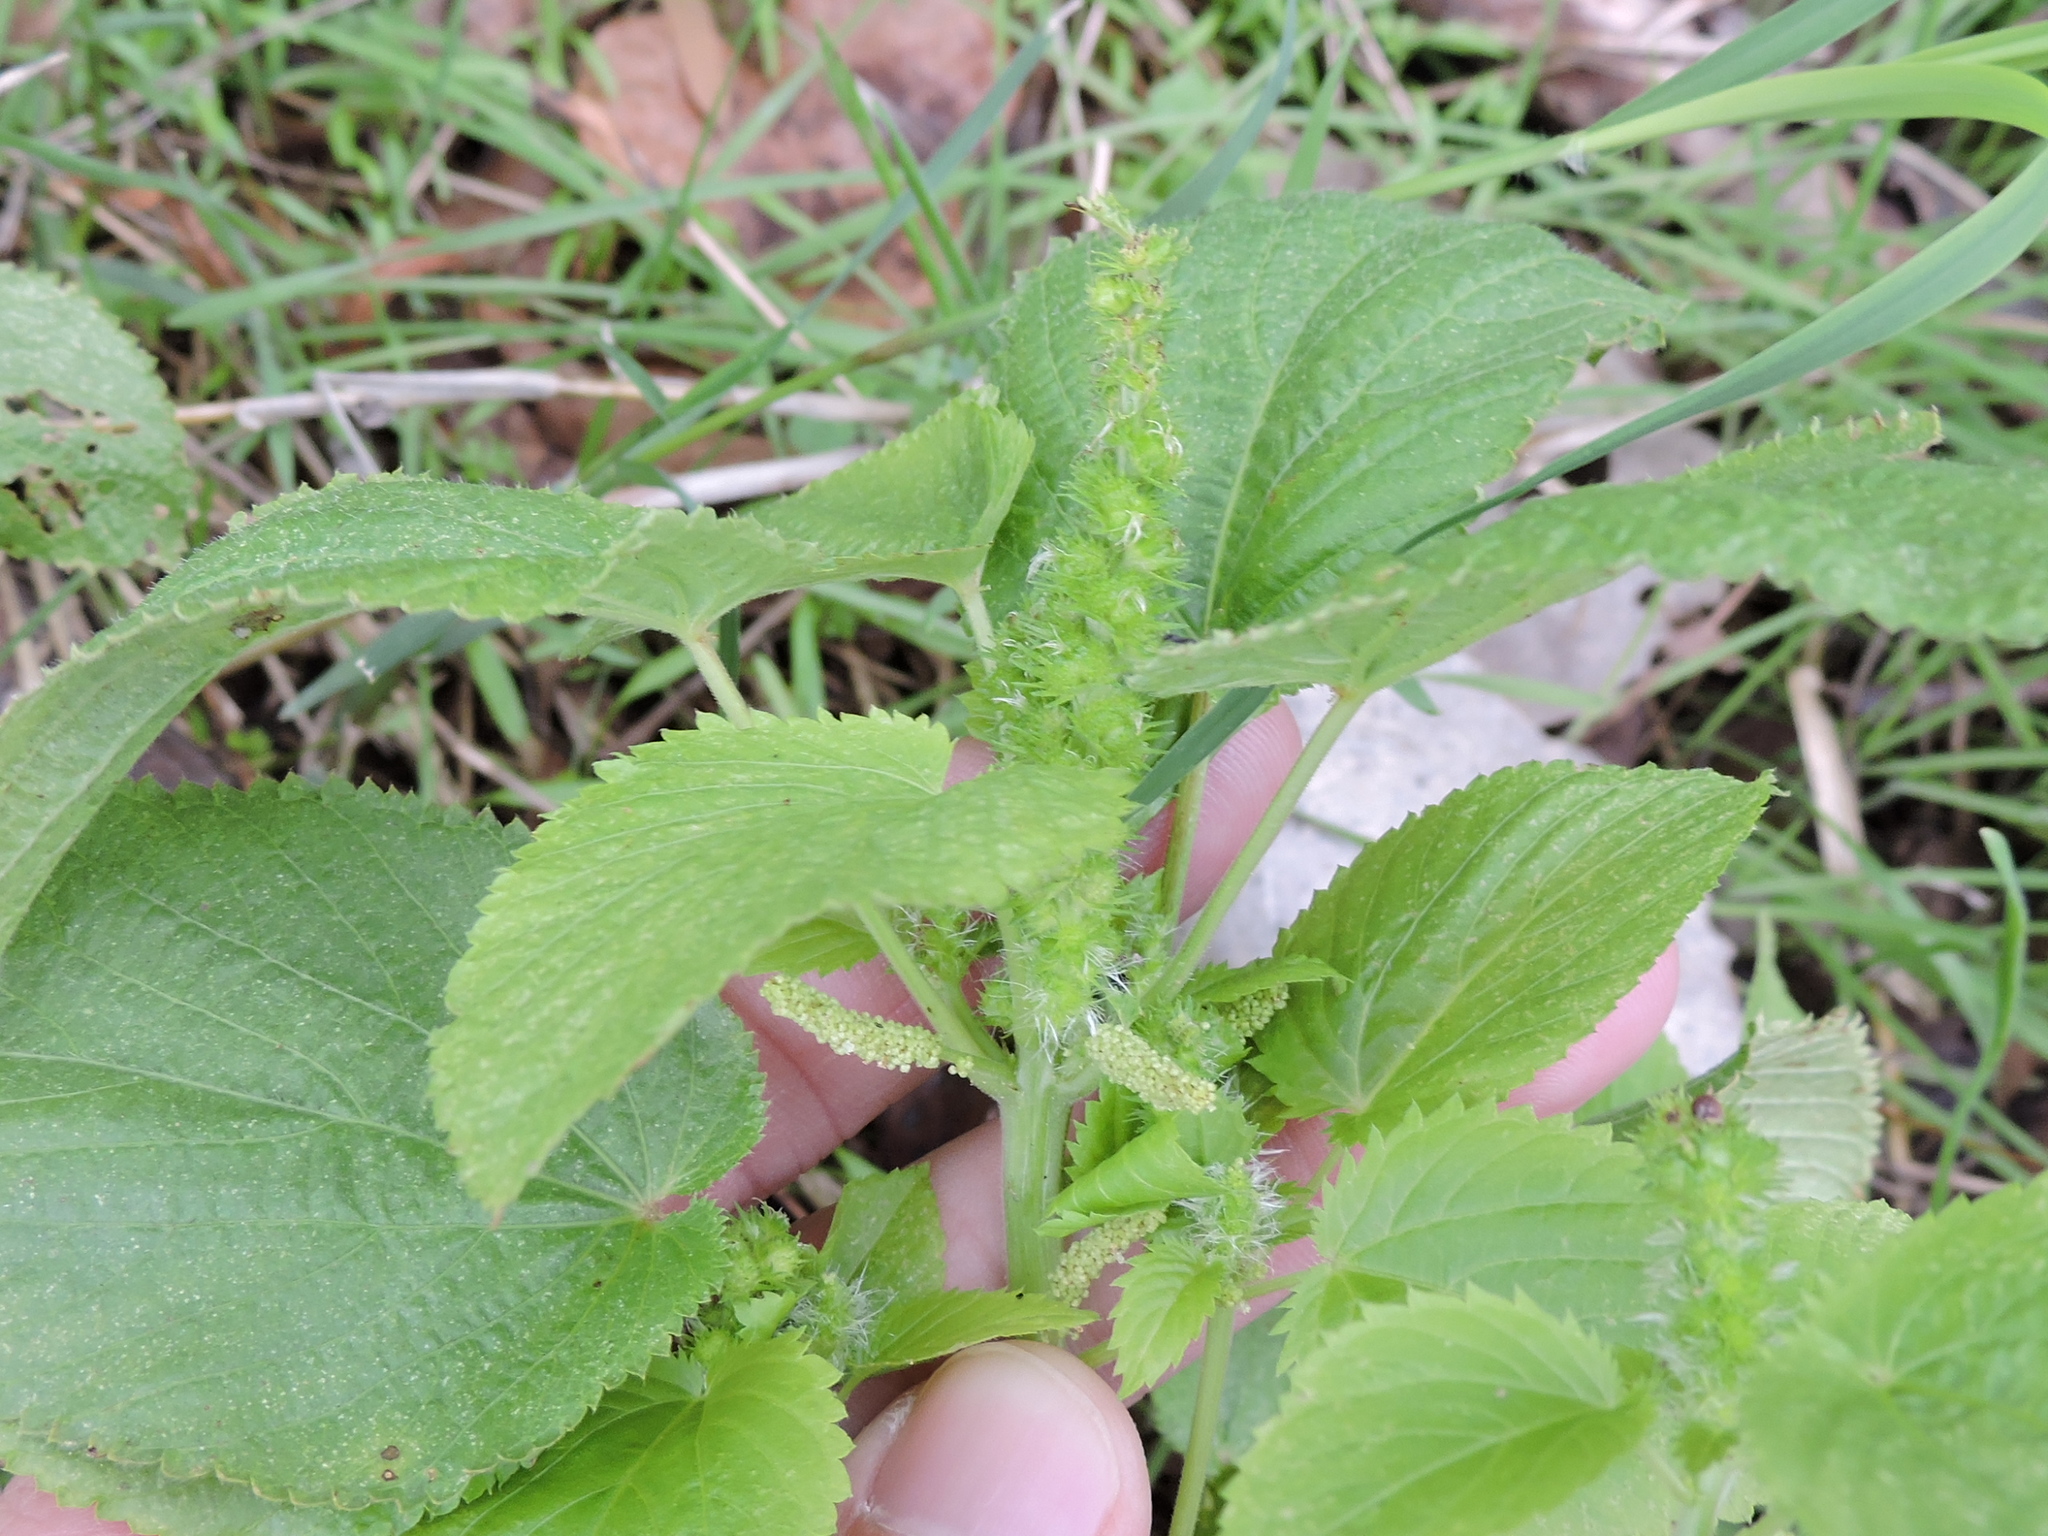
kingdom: Plantae
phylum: Tracheophyta
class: Magnoliopsida
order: Malpighiales
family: Euphorbiaceae
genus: Acalypha
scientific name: Acalypha ostryifolia
